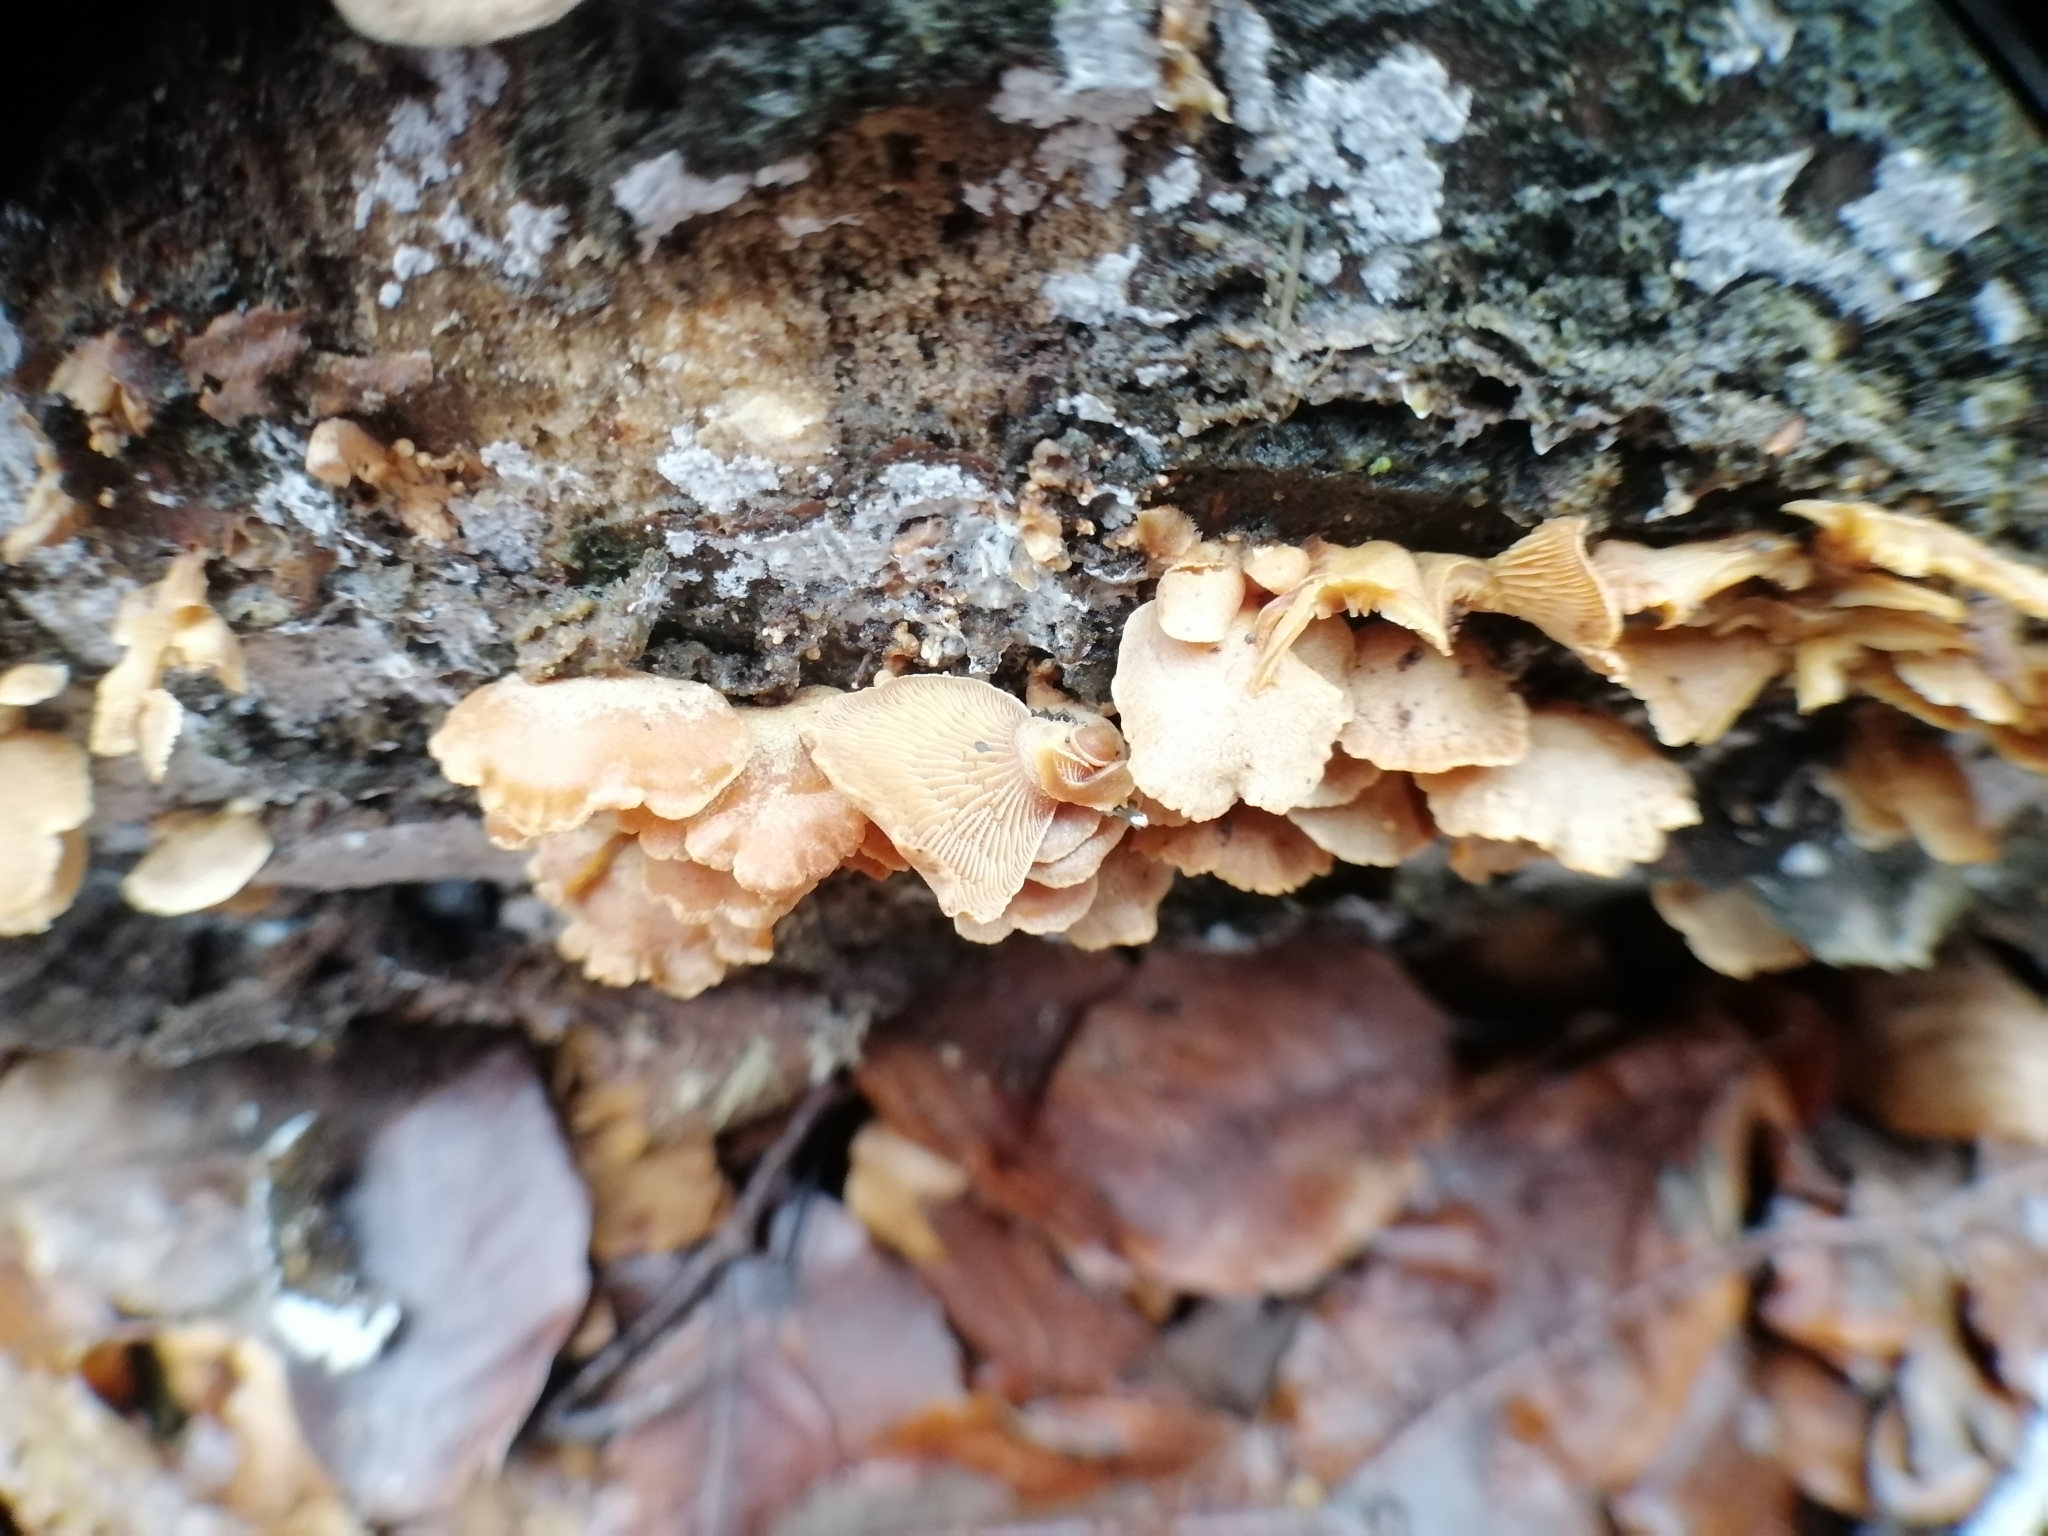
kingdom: Fungi
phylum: Basidiomycota
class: Agaricomycetes
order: Agaricales
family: Mycenaceae
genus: Panellus
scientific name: Panellus stipticus
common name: Bitter oysterling
